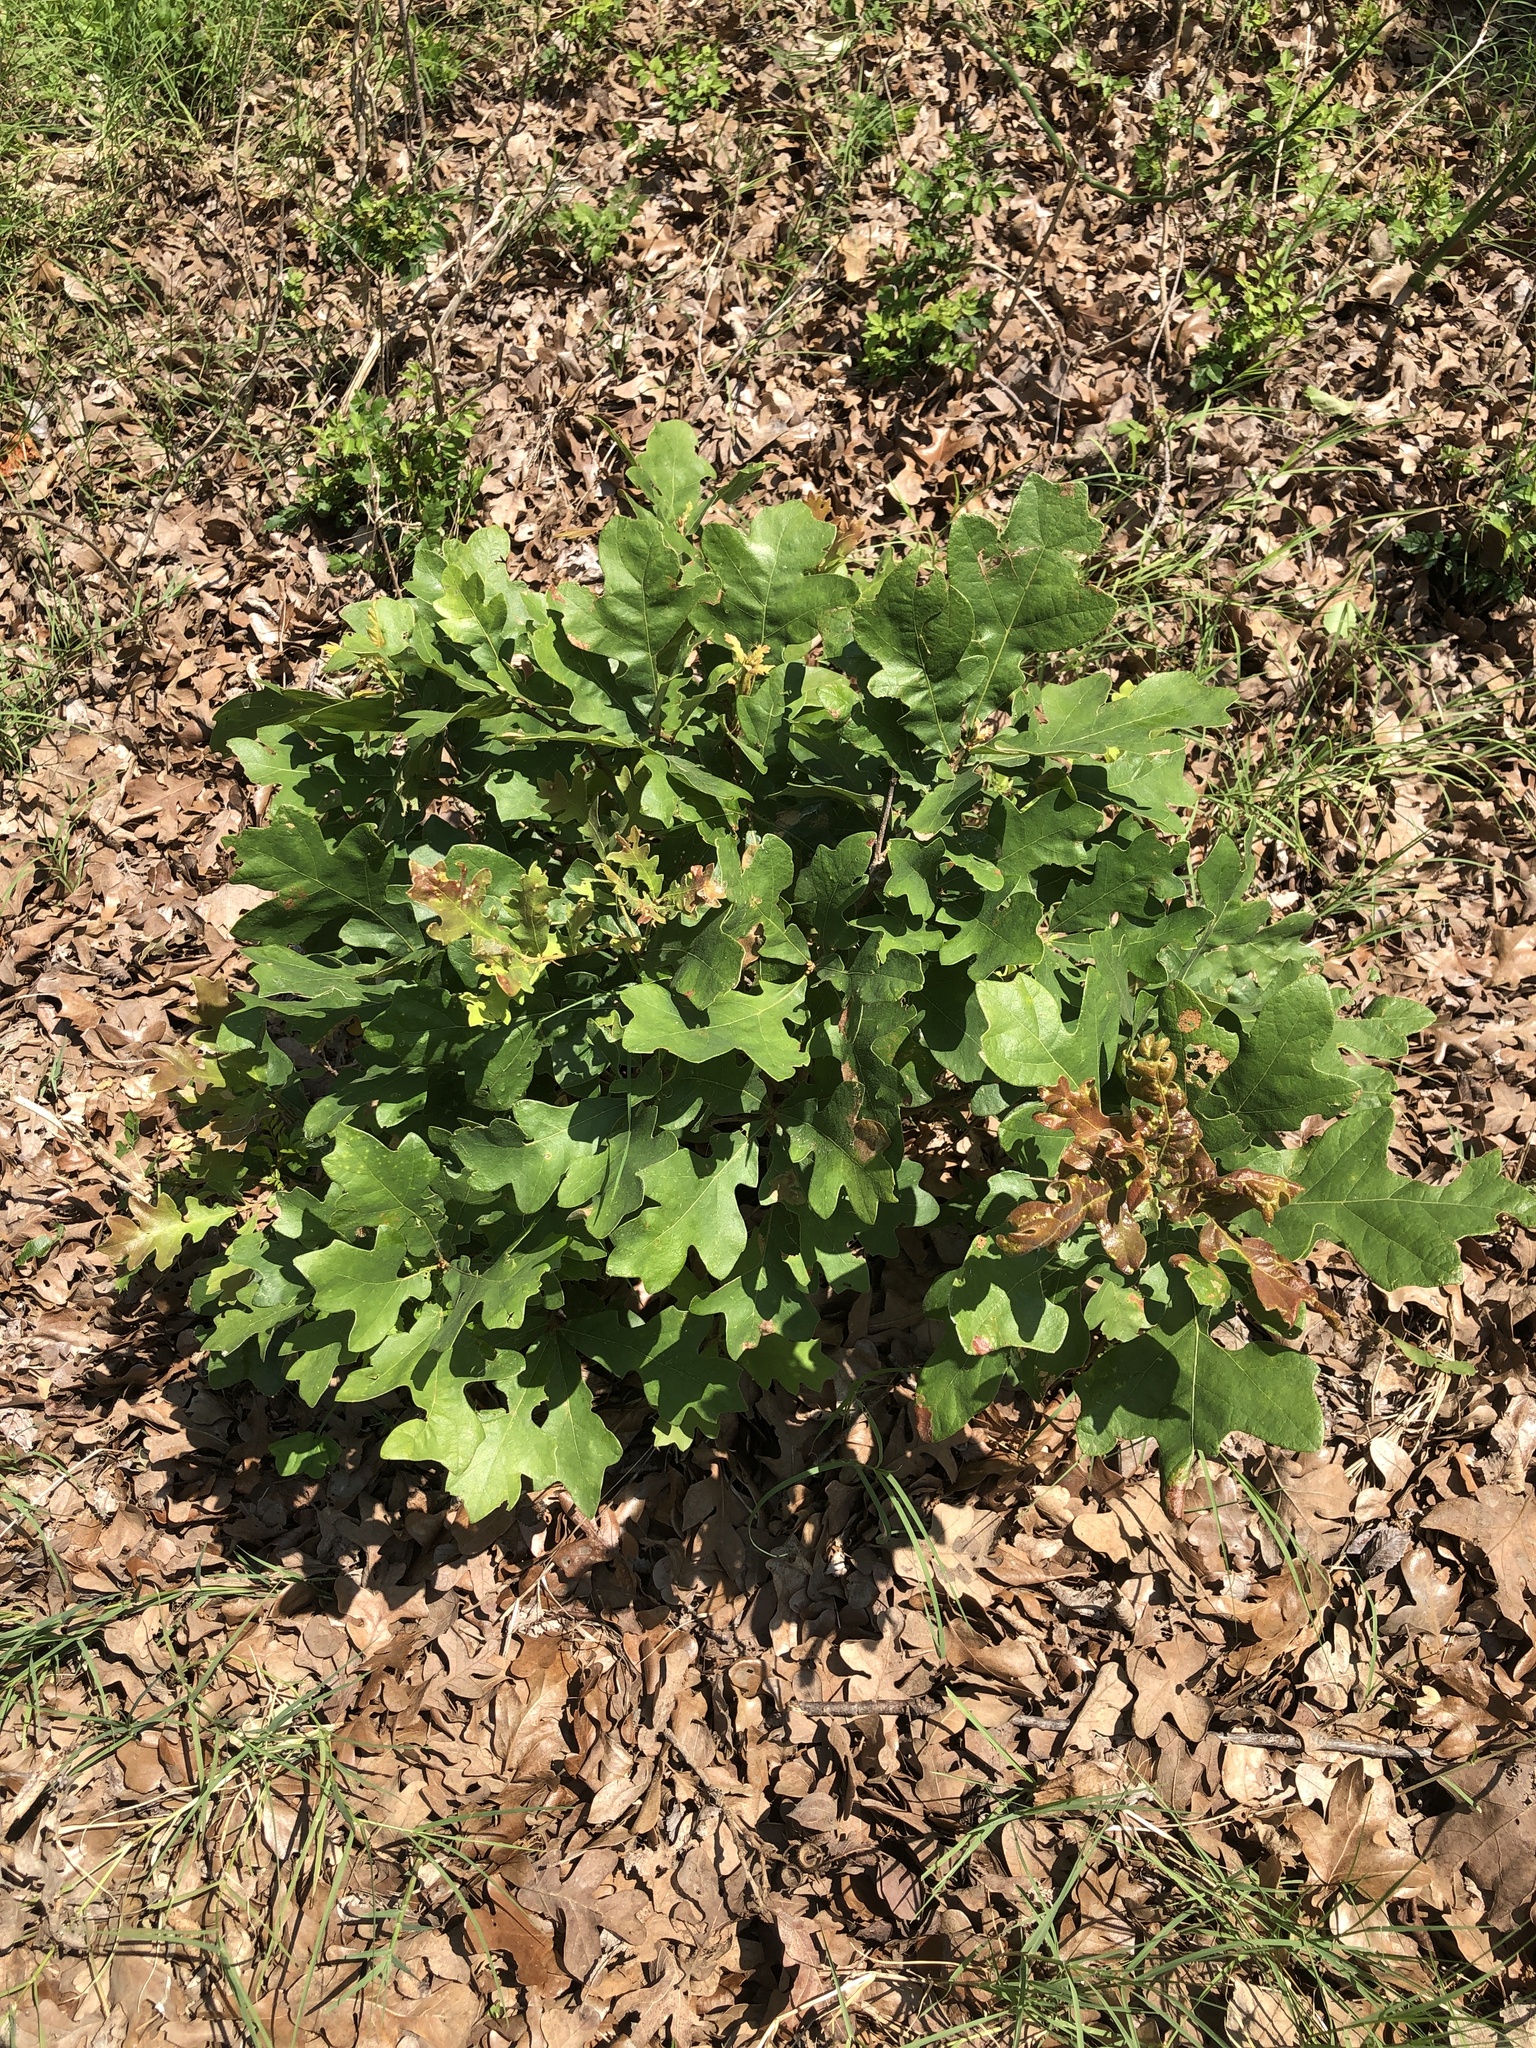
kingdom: Plantae
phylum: Tracheophyta
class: Magnoliopsida
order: Fagales
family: Fagaceae
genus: Quercus
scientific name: Quercus stellata
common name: Post oak
